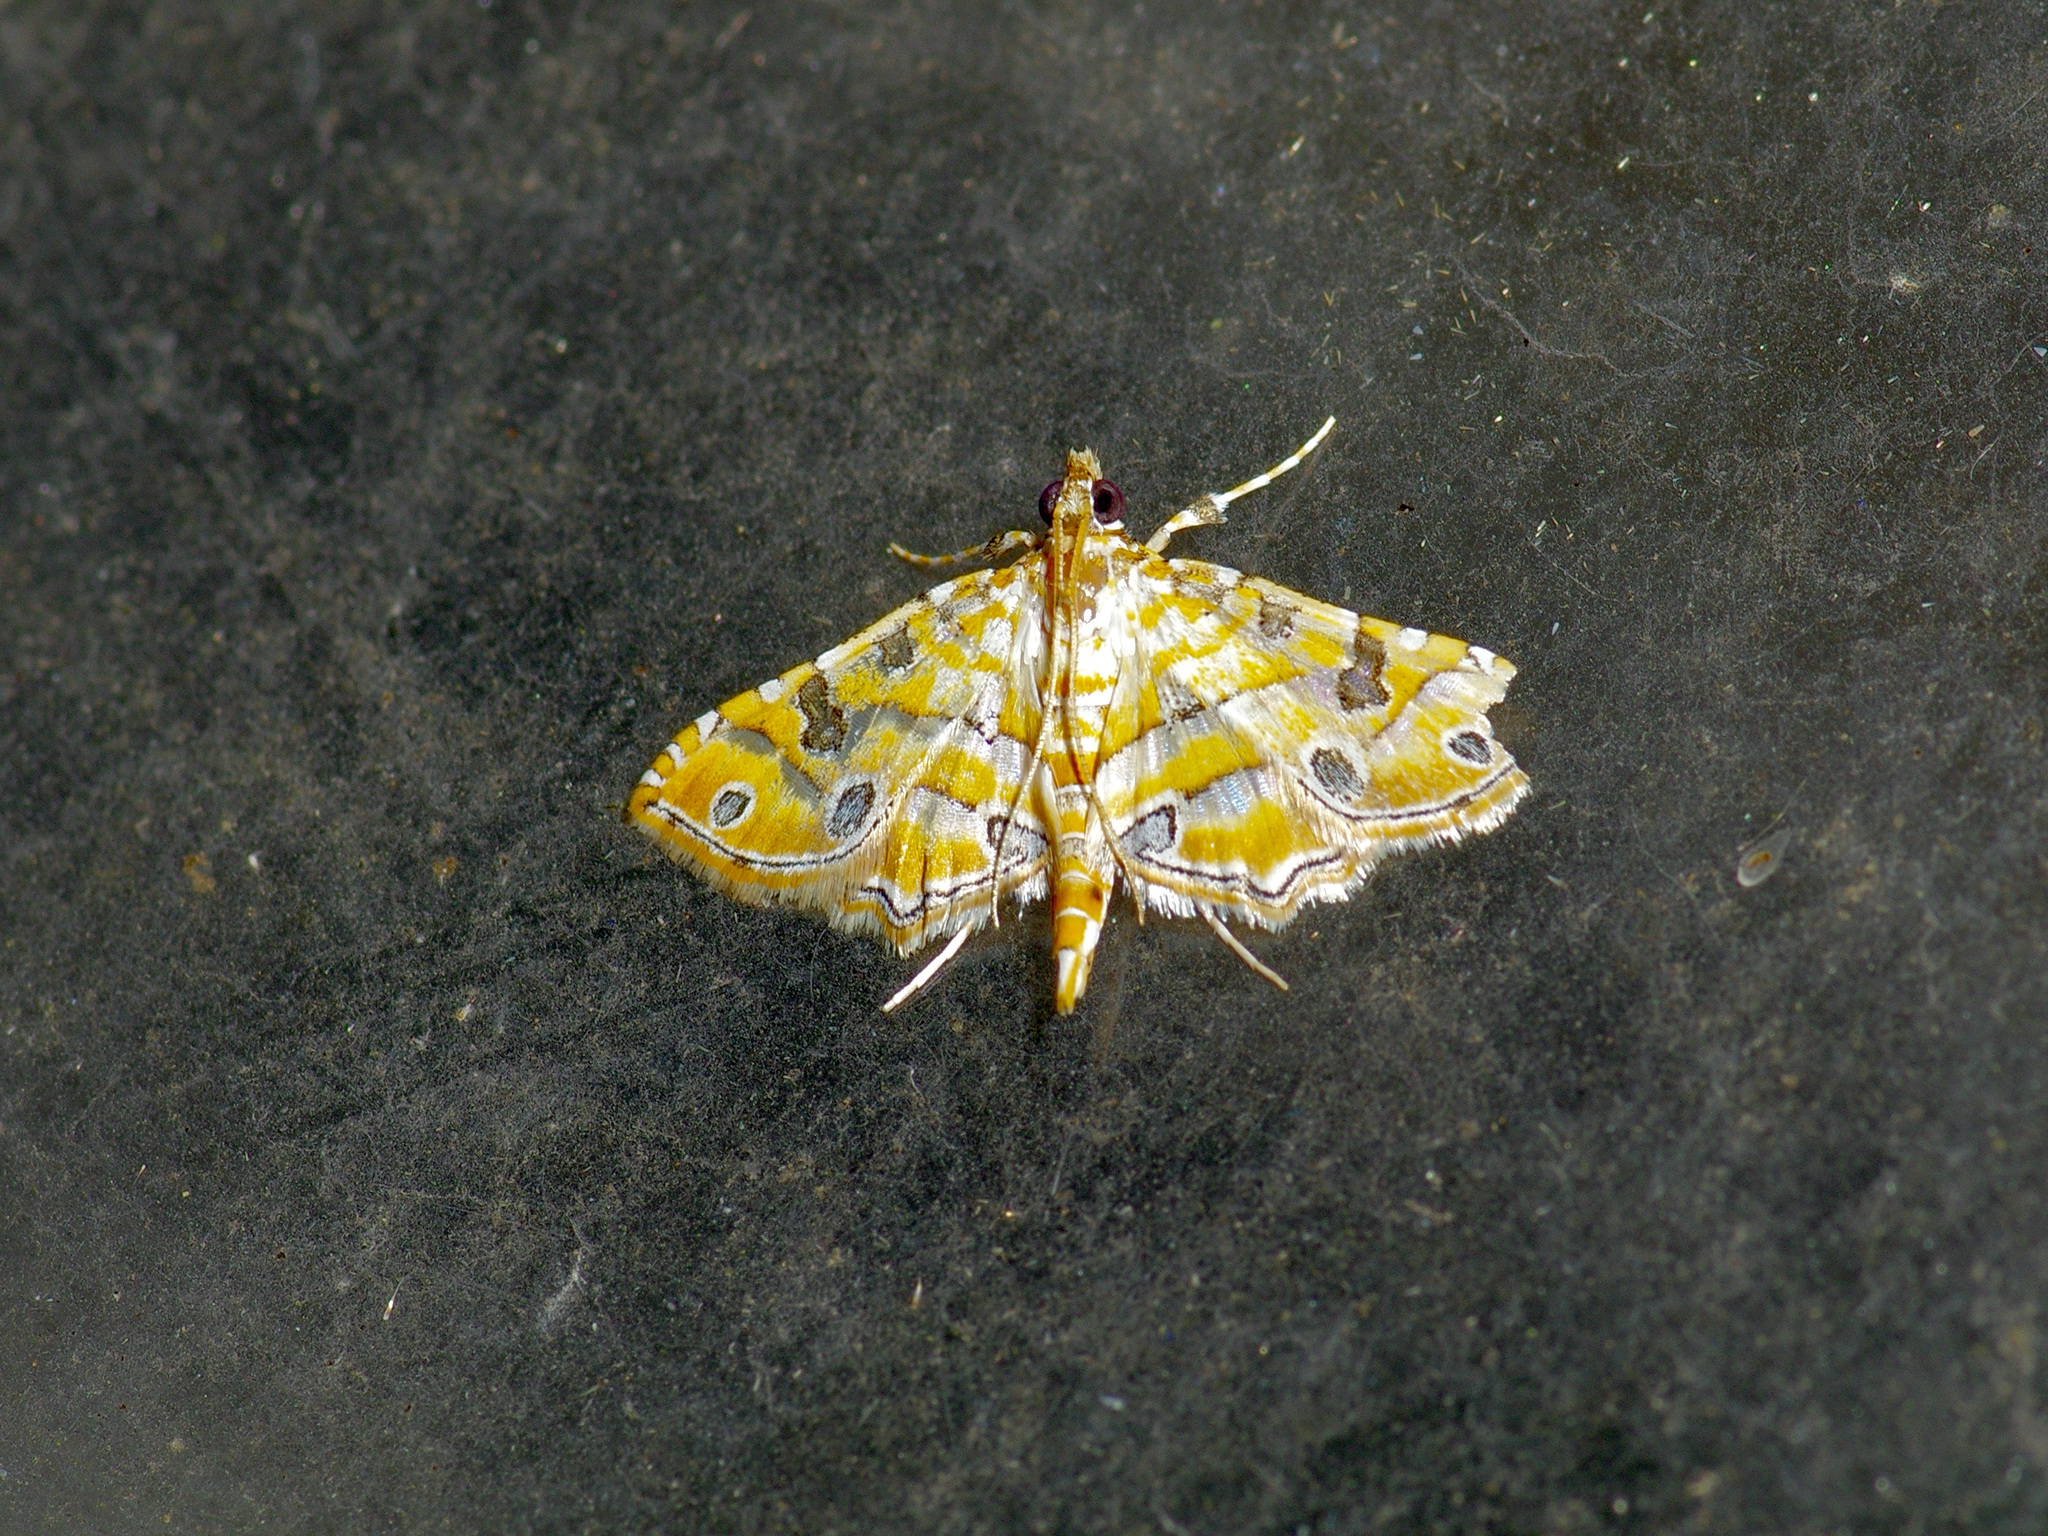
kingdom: Animalia
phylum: Arthropoda
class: Insecta
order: Lepidoptera
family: Crambidae
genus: Ommatospila
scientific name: Ommatospila narcaeusalis
